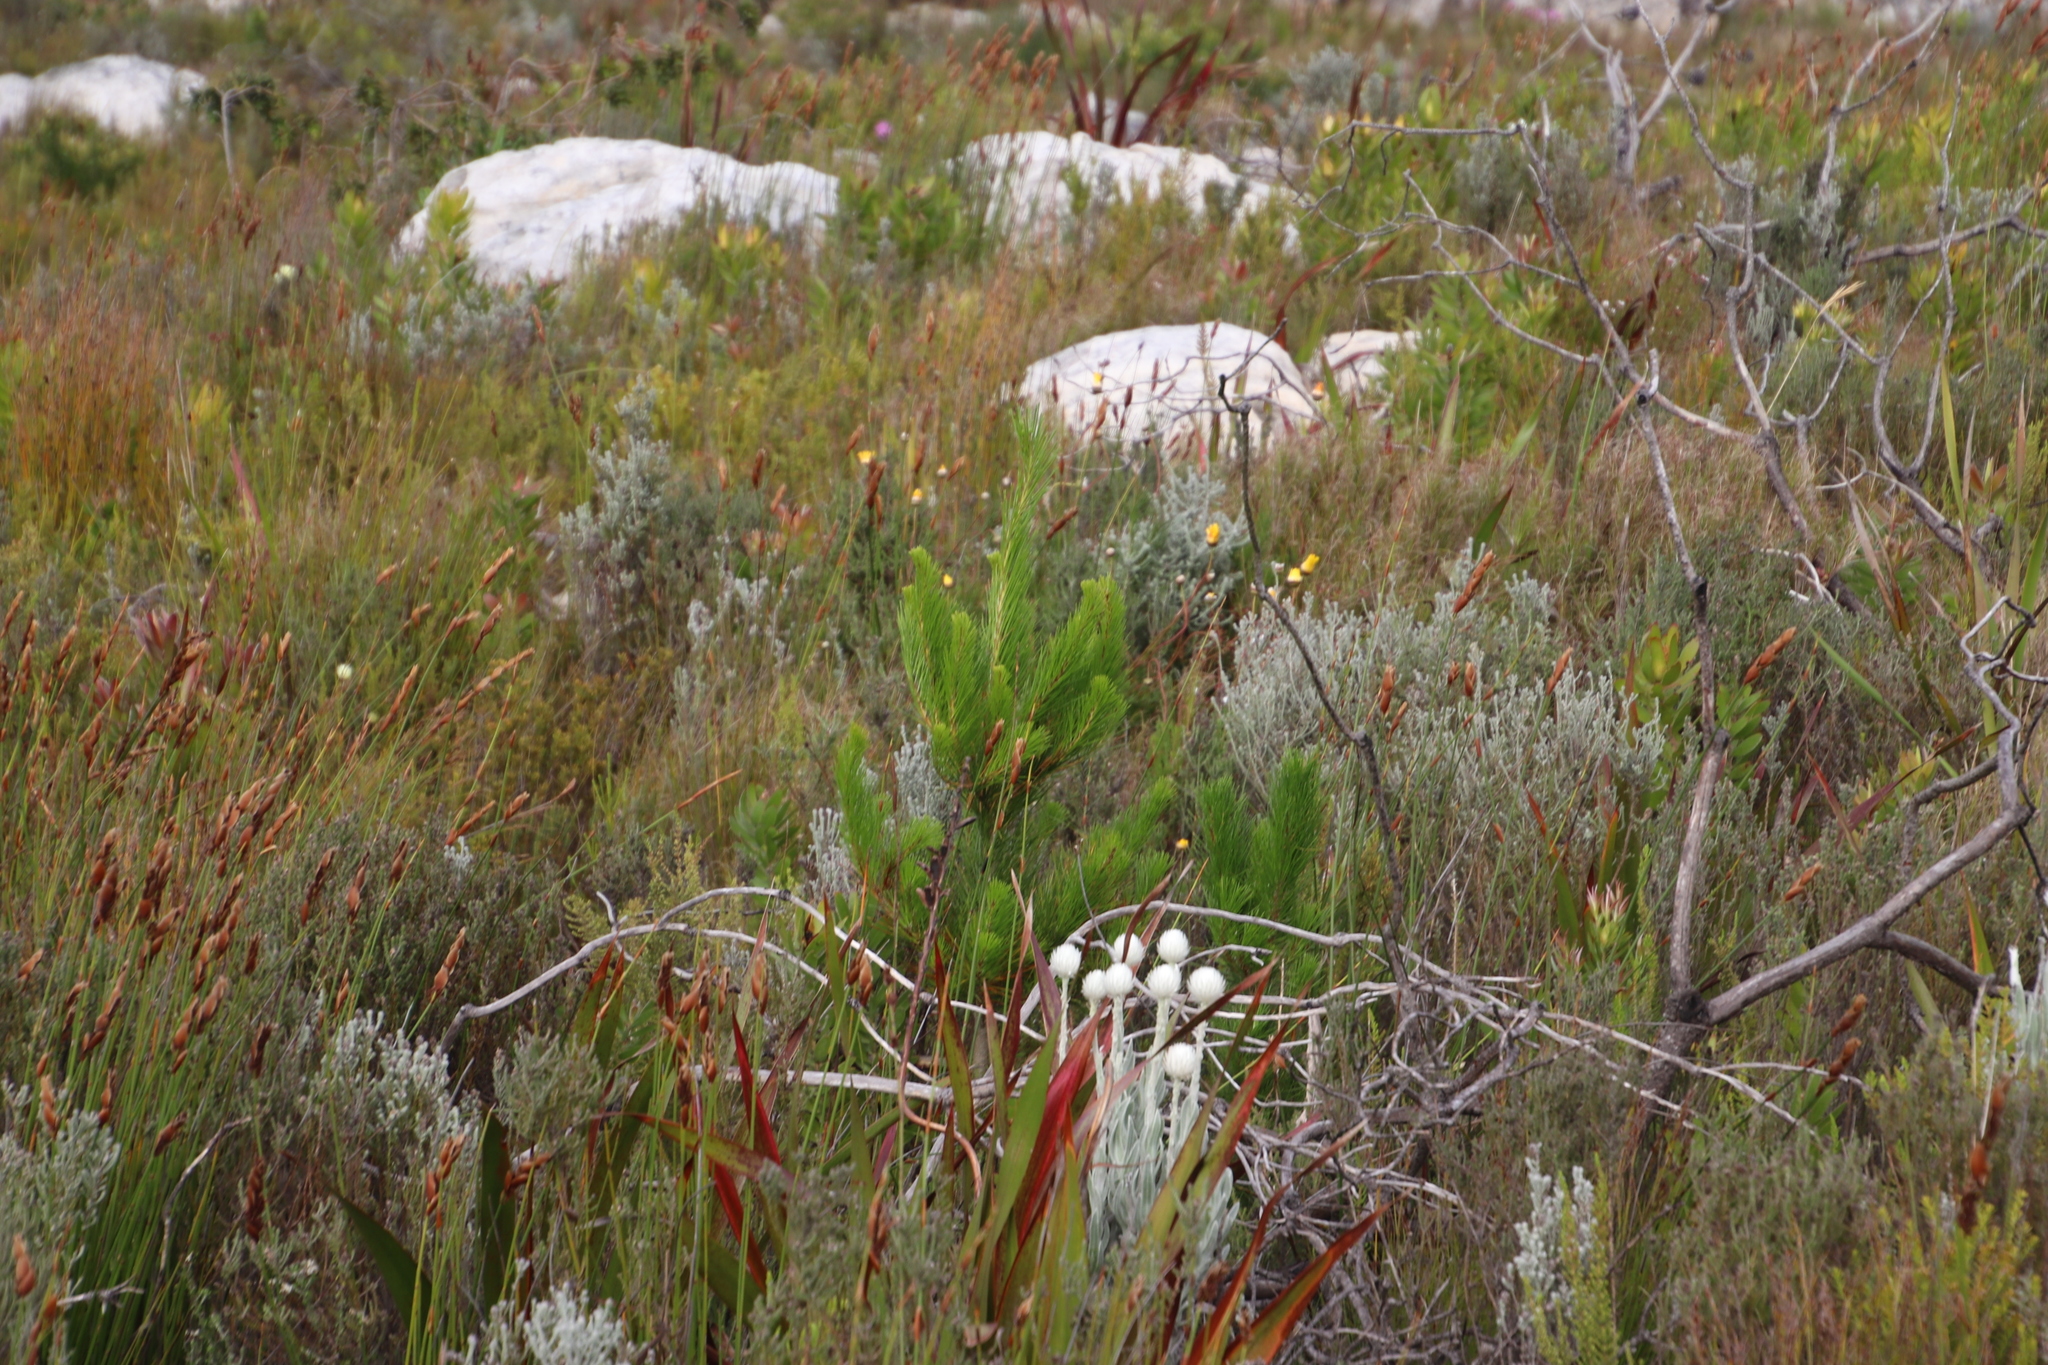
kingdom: Plantae
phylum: Tracheophyta
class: Pinopsida
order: Pinales
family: Pinaceae
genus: Pinus
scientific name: Pinus radiata
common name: Monterey pine
